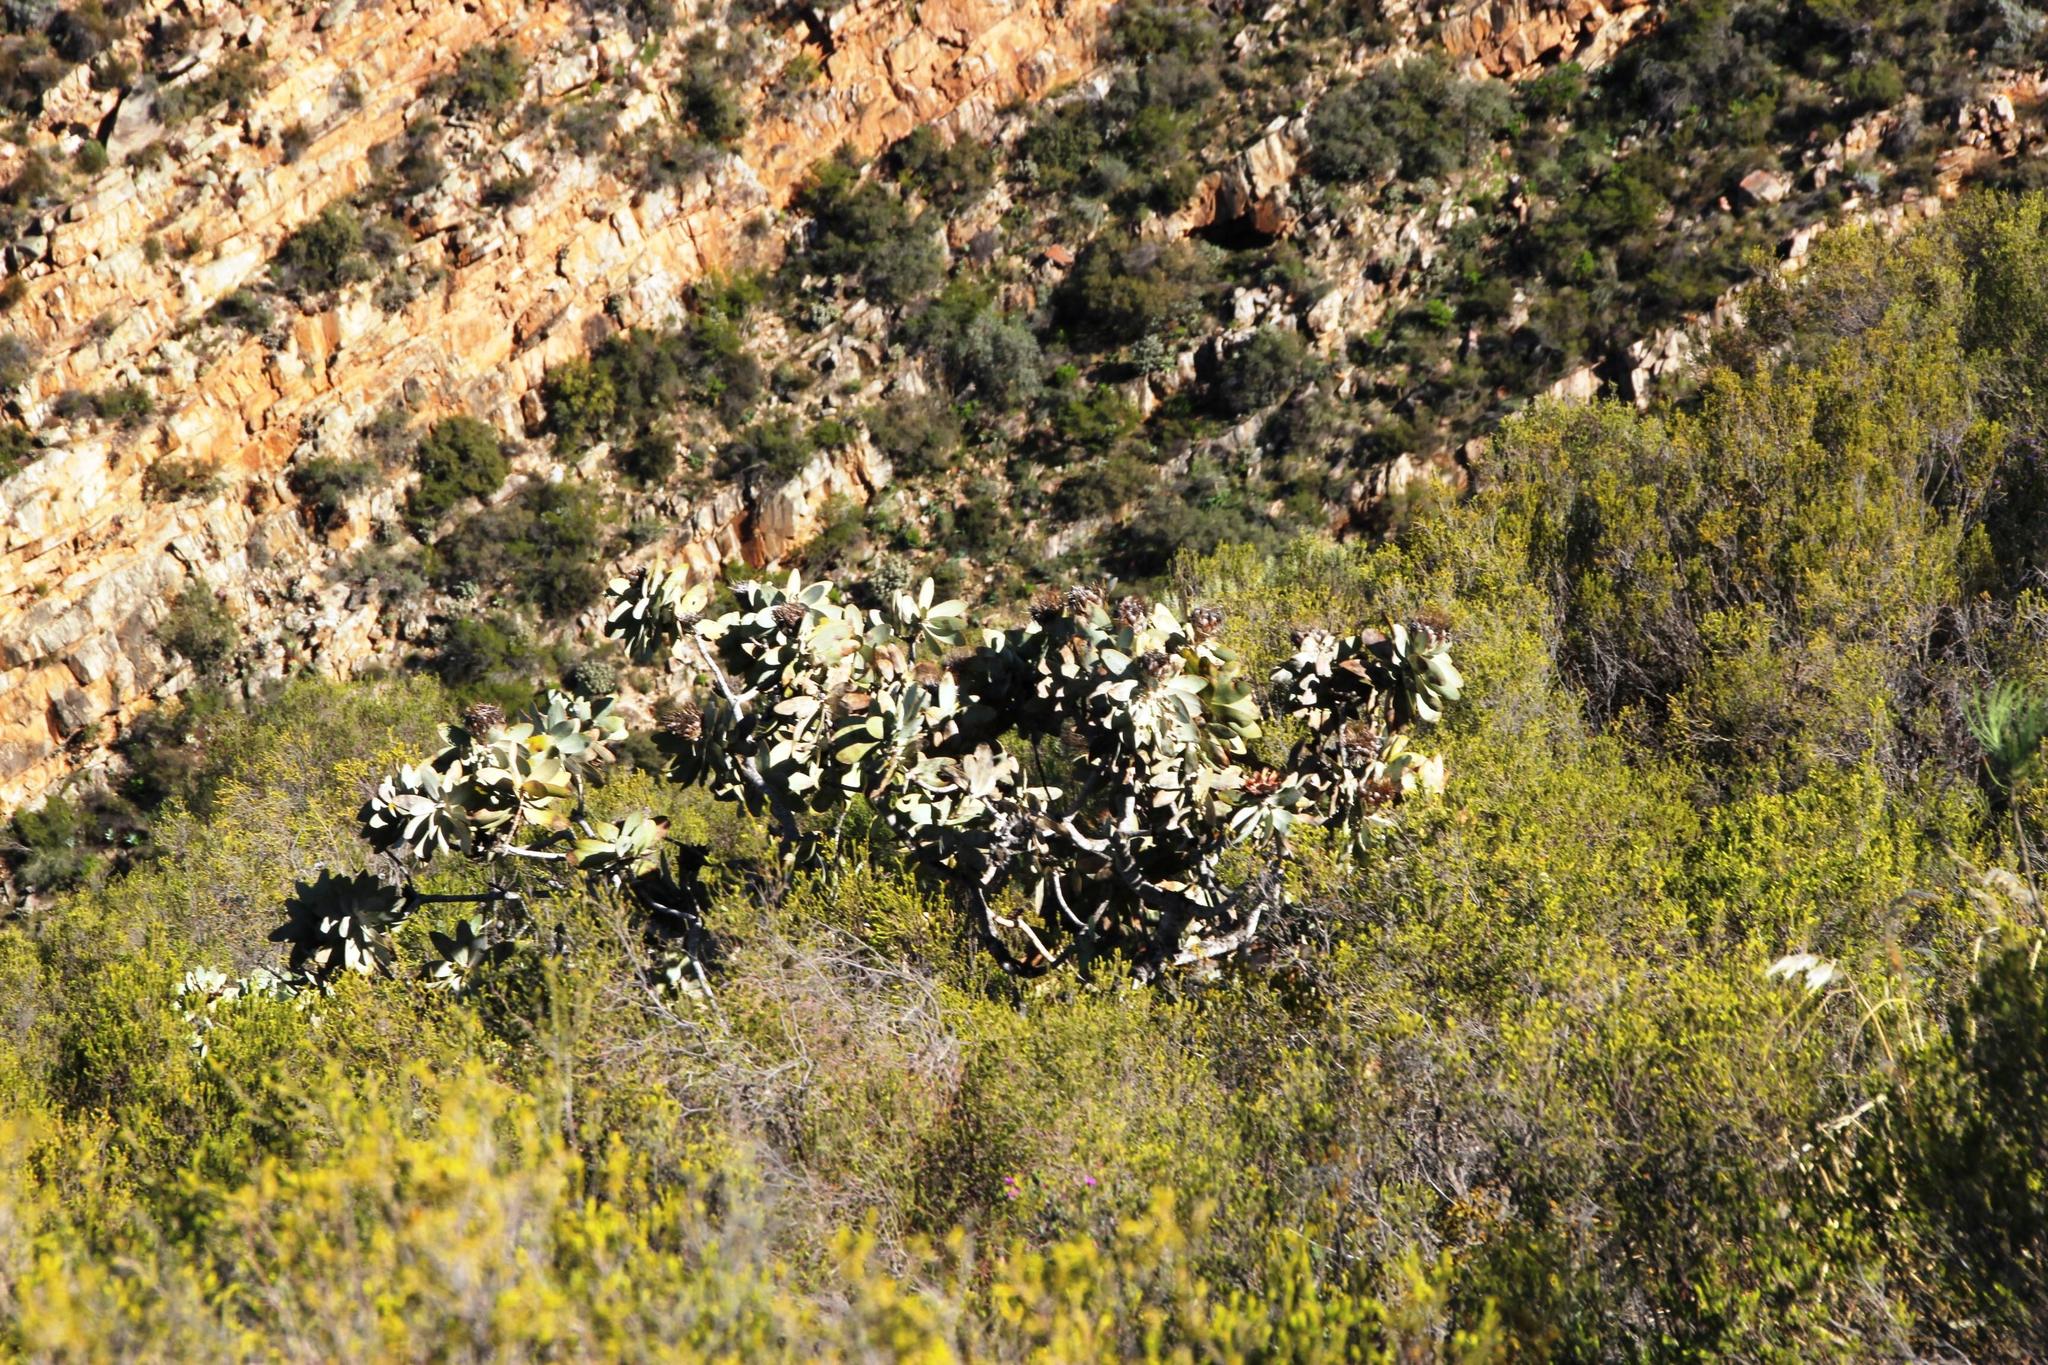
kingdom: Plantae
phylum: Tracheophyta
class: Magnoliopsida
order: Proteales
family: Proteaceae
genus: Protea
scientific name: Protea nitida
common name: Tree protea
